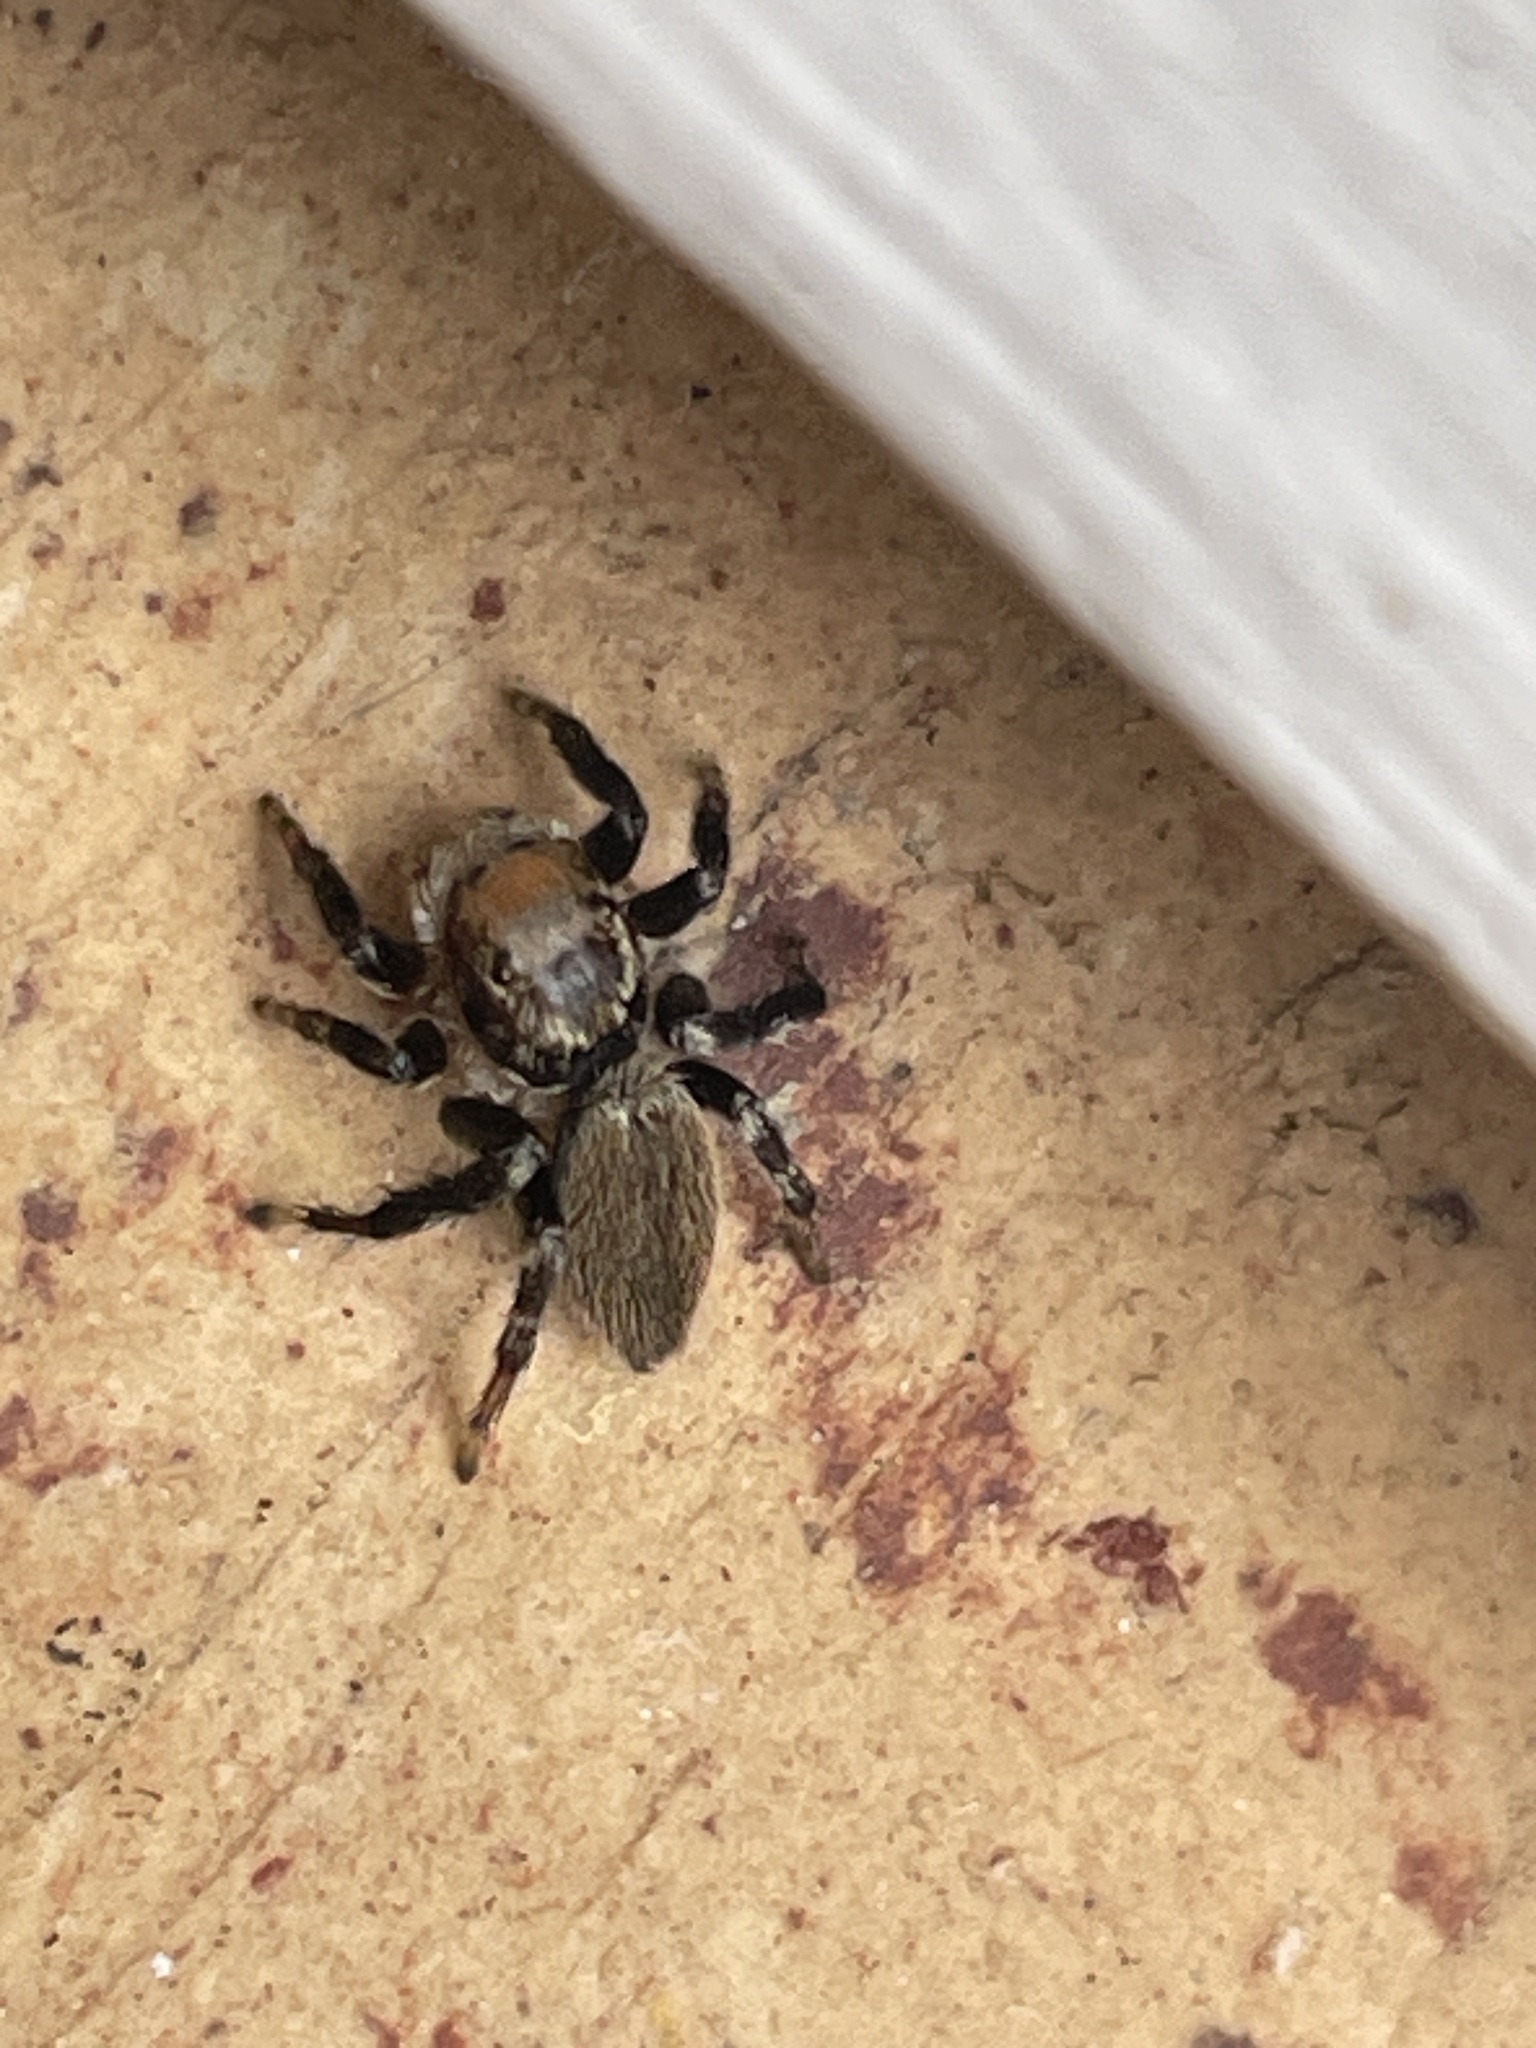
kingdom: Animalia
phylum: Arthropoda
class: Arachnida
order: Araneae
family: Salticidae
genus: Maratus
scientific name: Maratus griseus
